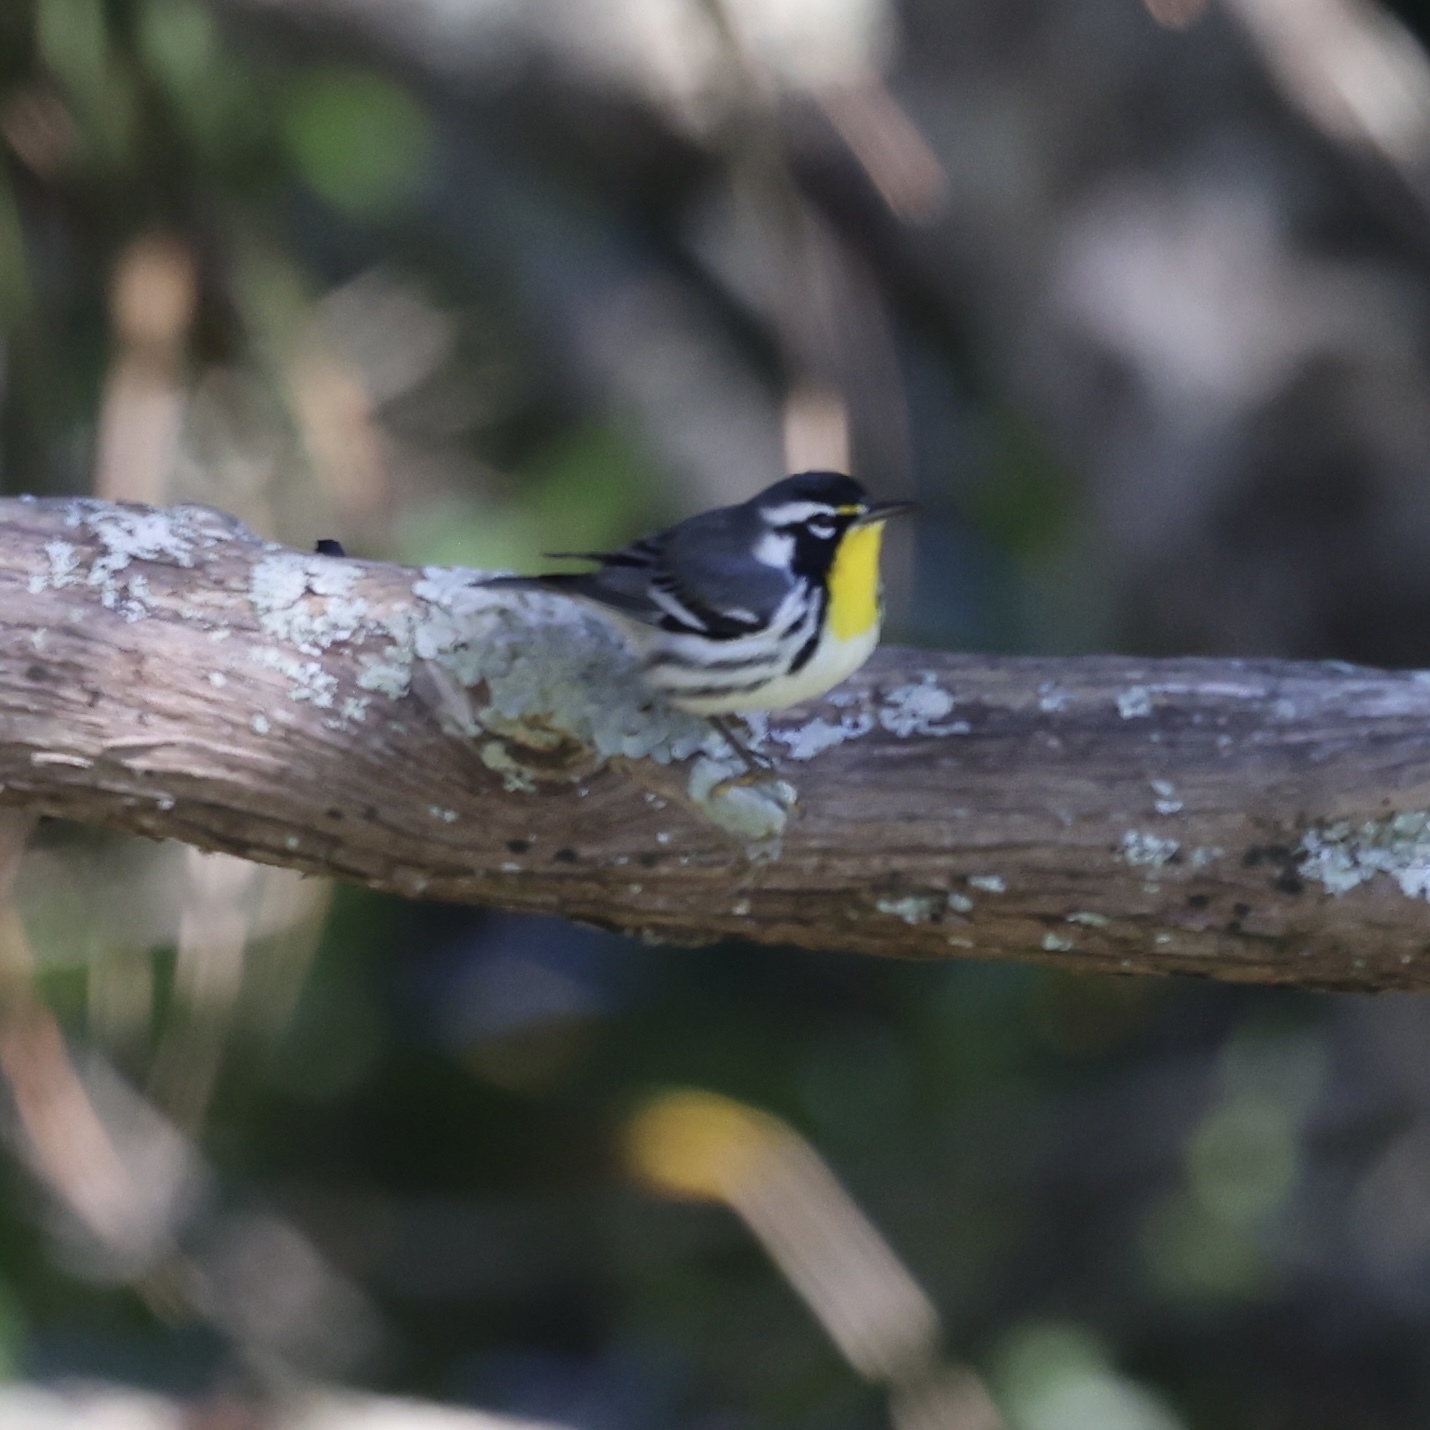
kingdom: Animalia
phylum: Chordata
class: Aves
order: Passeriformes
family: Parulidae
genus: Setophaga
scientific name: Setophaga dominica
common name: Yellow-throated warbler
